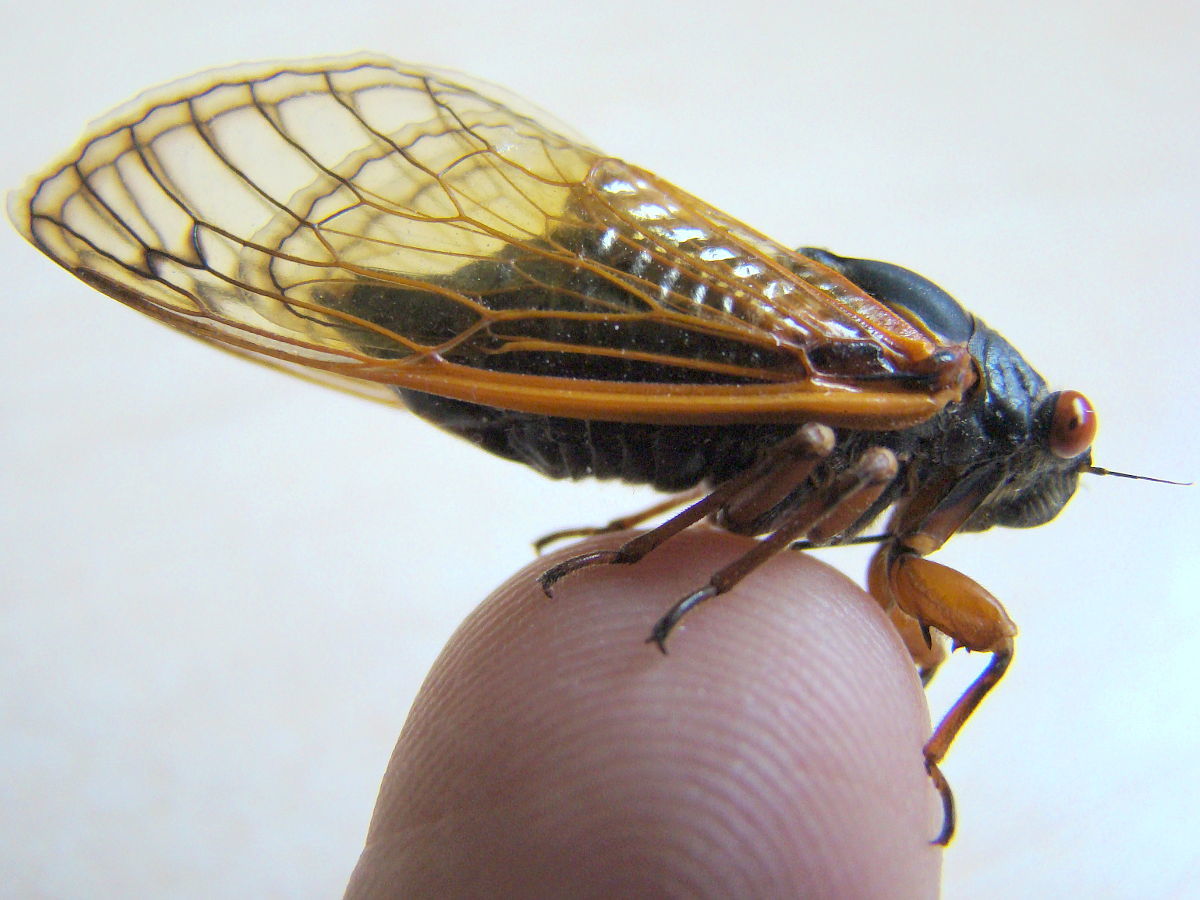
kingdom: Animalia
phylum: Arthropoda
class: Insecta
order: Hemiptera
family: Cicadidae
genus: Magicicada
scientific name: Magicicada cassini
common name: Cassin's 17-year cicada
